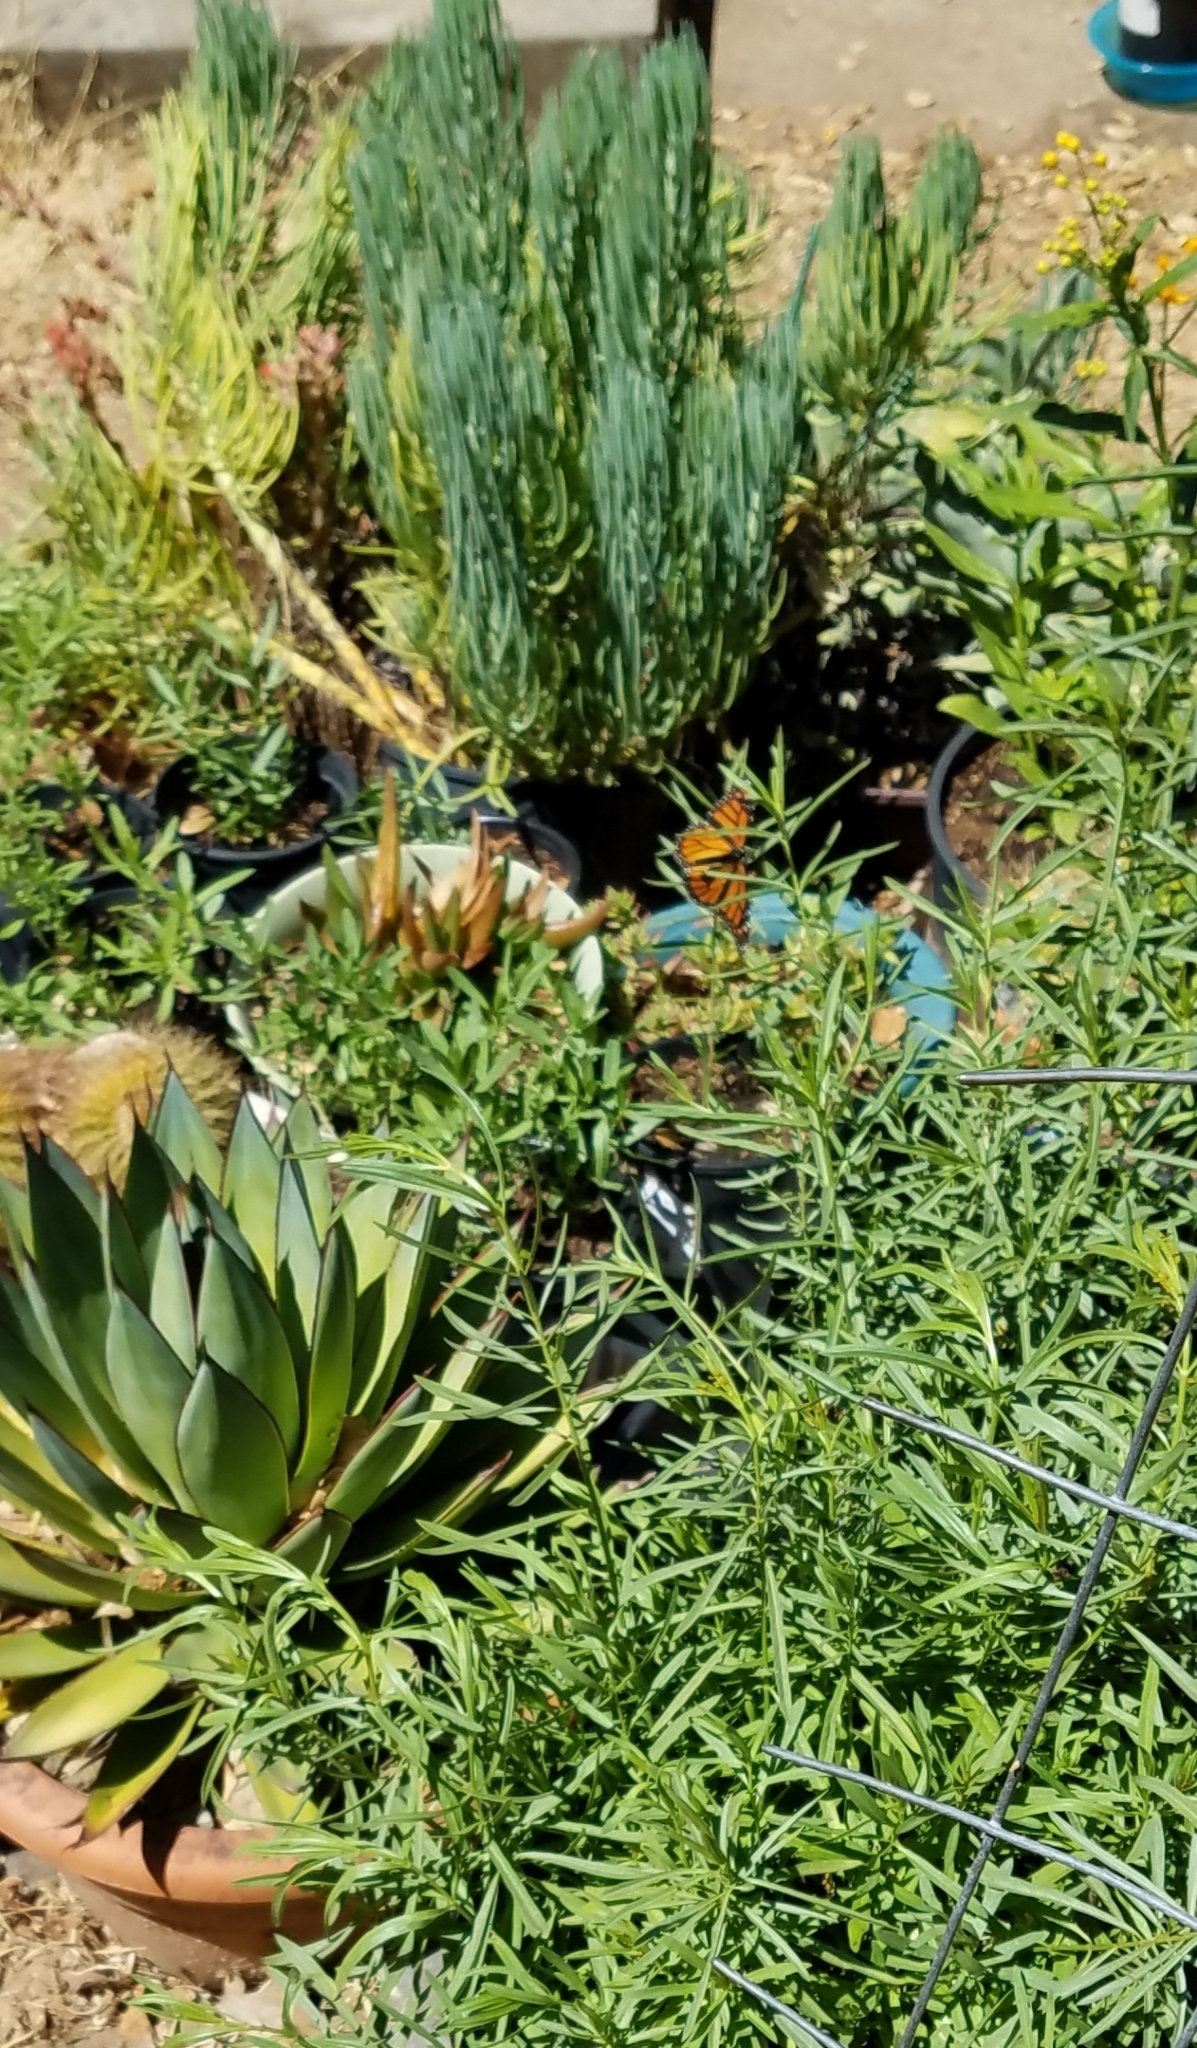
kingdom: Animalia
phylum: Arthropoda
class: Insecta
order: Lepidoptera
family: Nymphalidae
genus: Danaus
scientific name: Danaus plexippus
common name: Monarch
